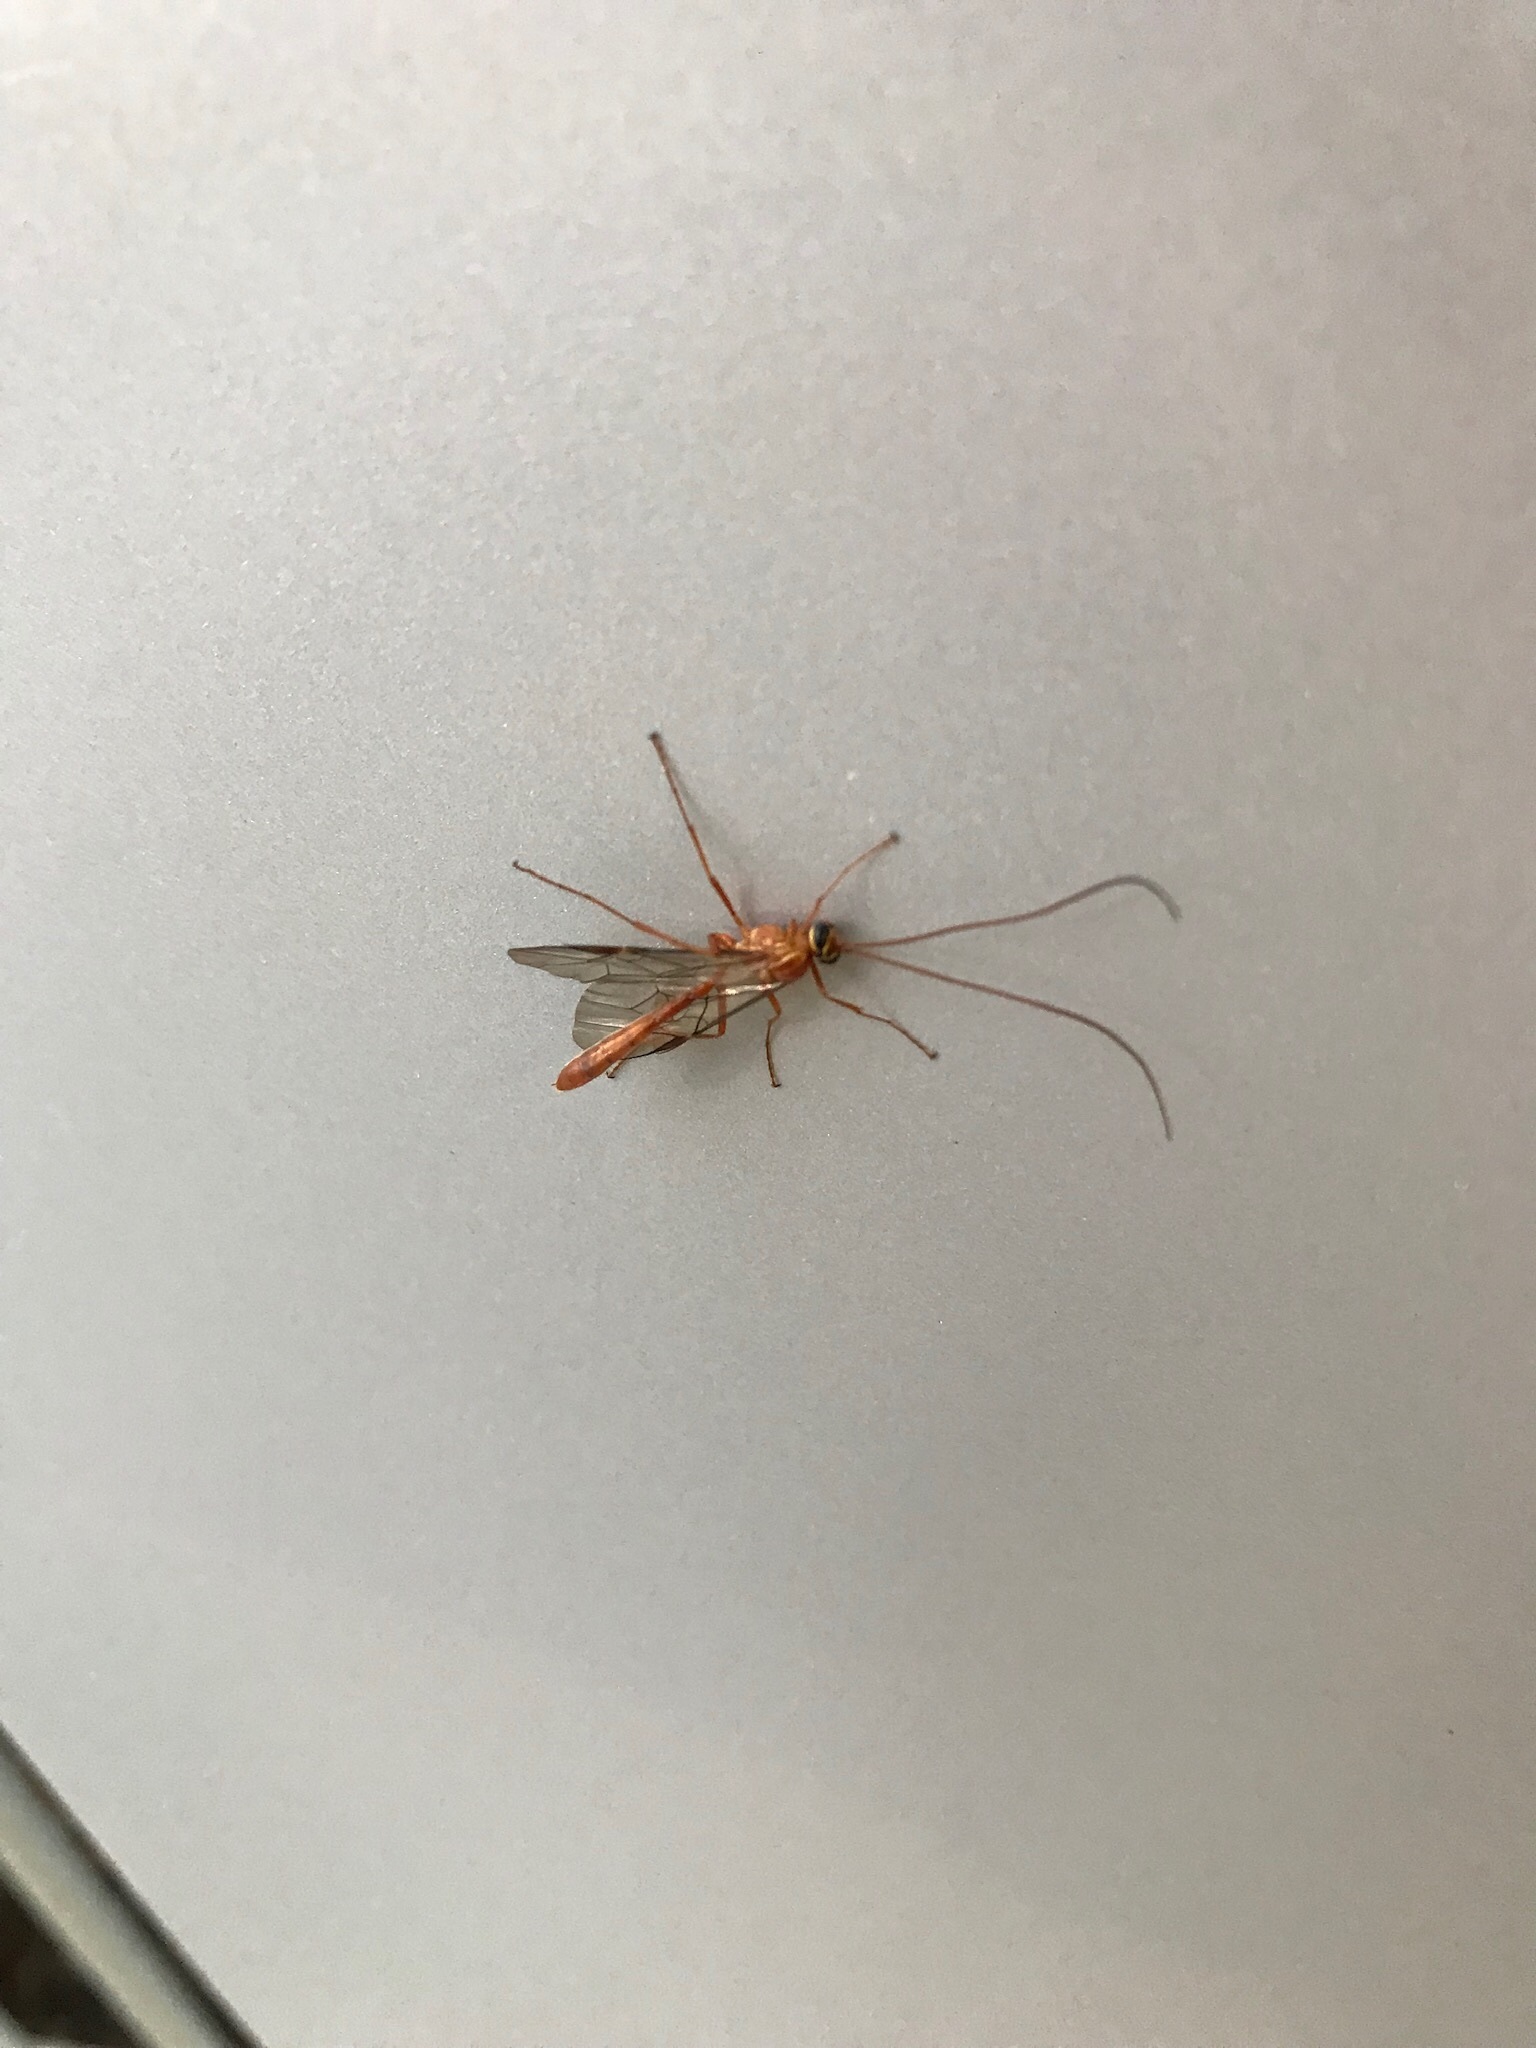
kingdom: Animalia
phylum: Arthropoda
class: Insecta
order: Hymenoptera
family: Ichneumonidae
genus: Ophion
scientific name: Ophion
